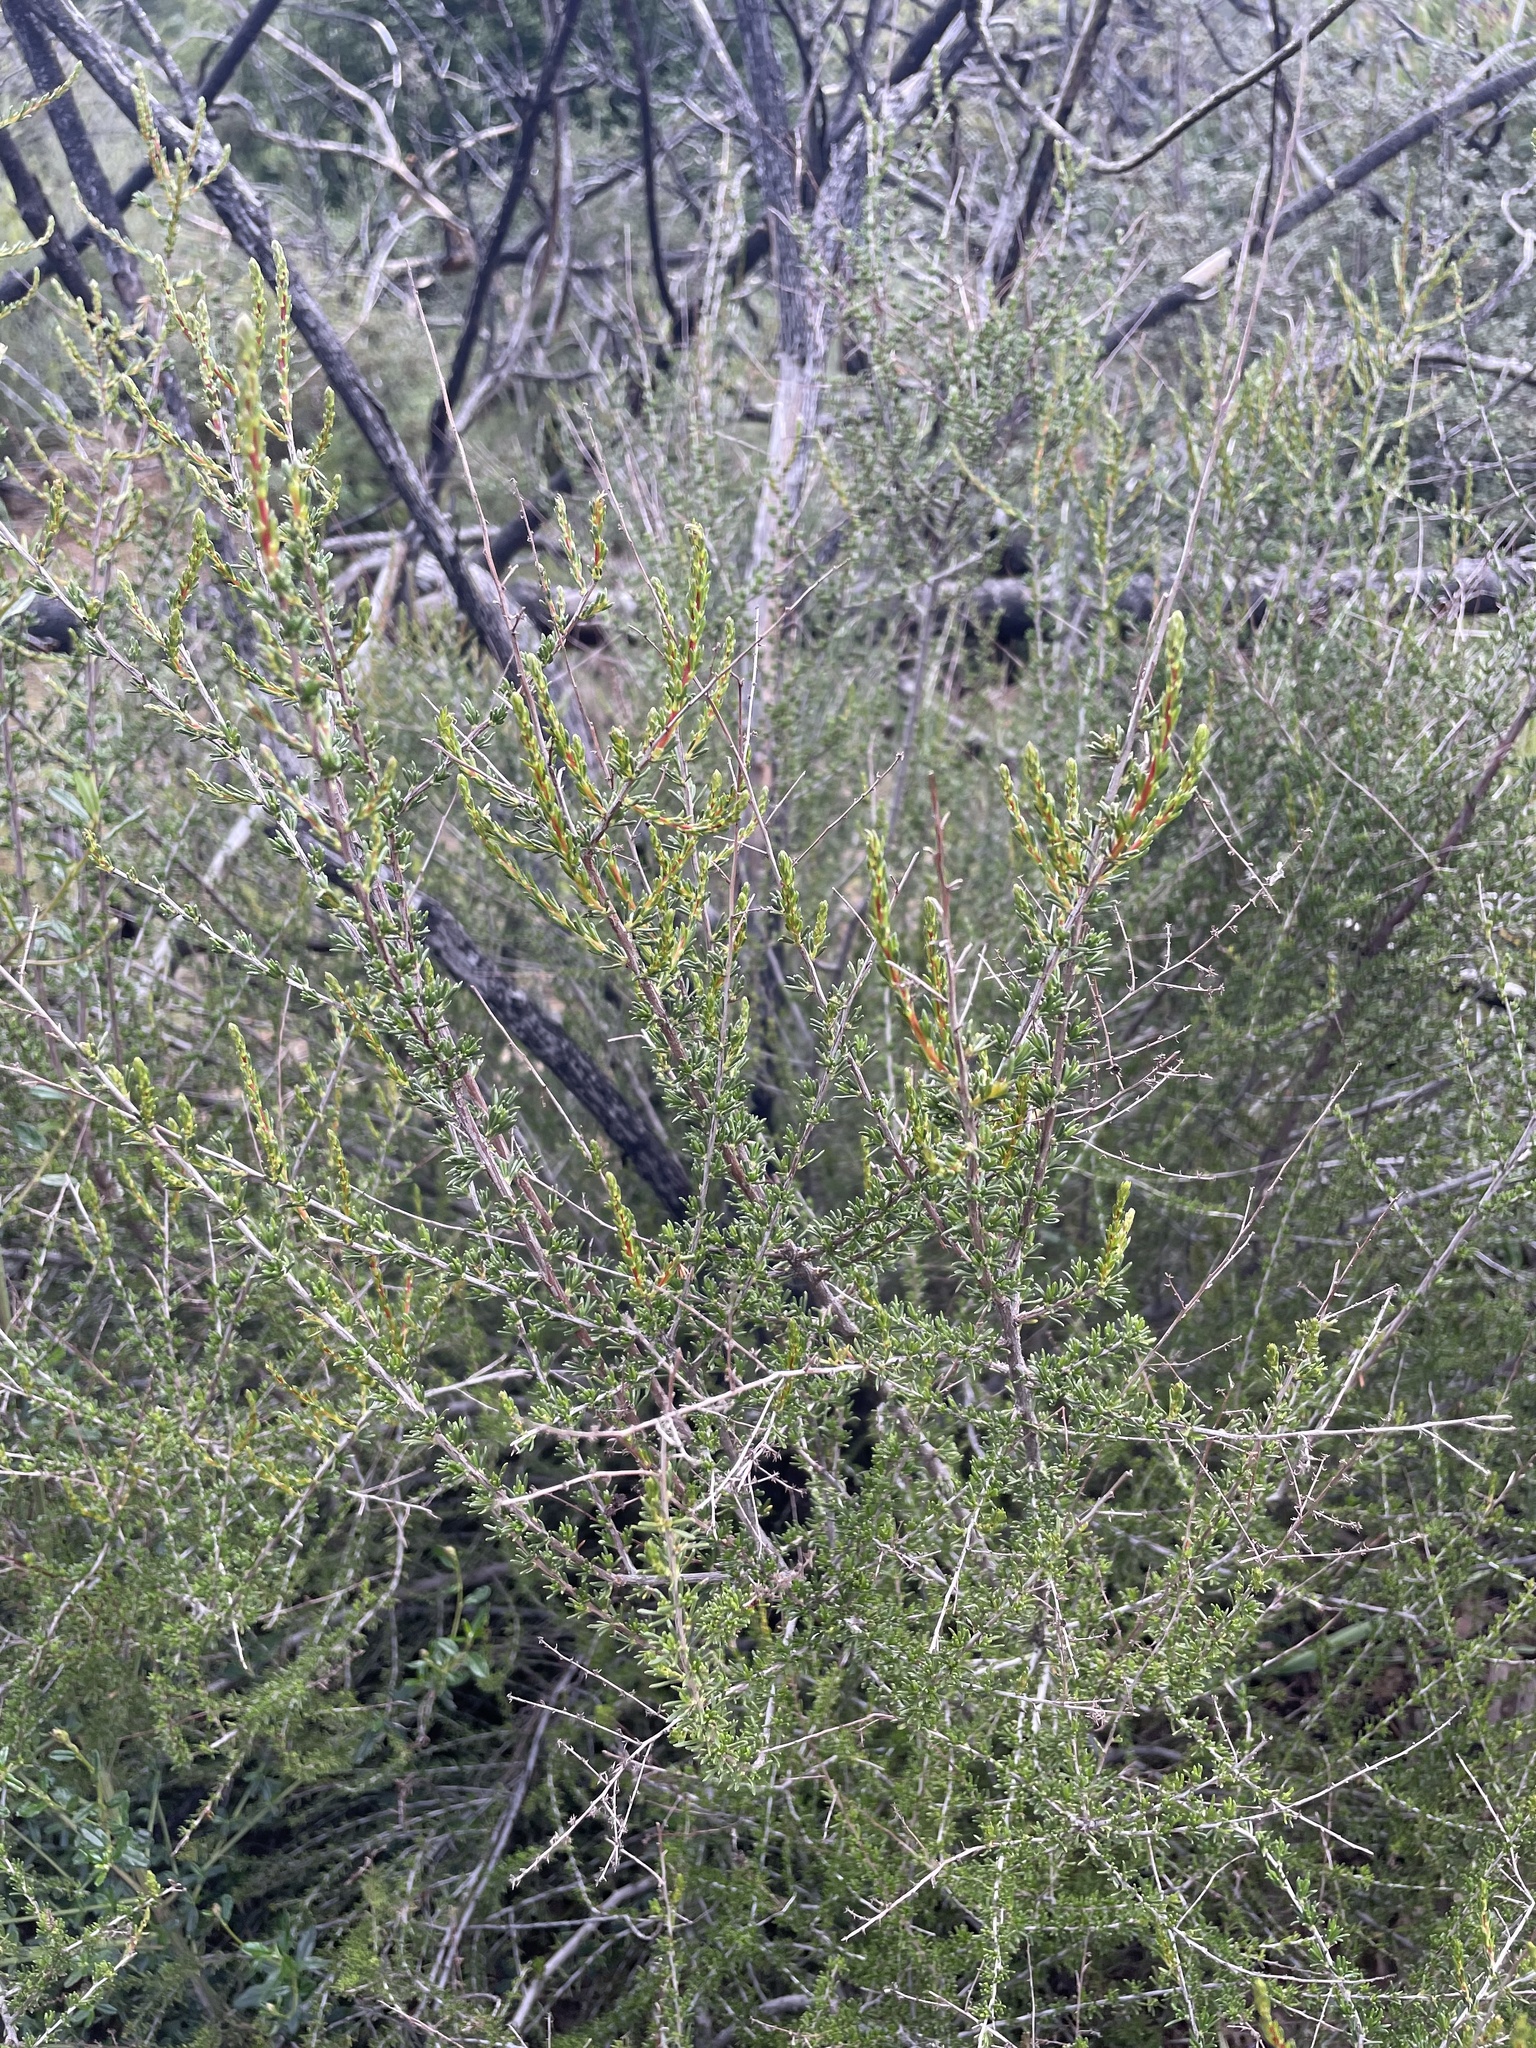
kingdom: Plantae
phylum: Tracheophyta
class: Magnoliopsida
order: Rosales
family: Rosaceae
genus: Adenostoma
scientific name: Adenostoma fasciculatum
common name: Chamise
